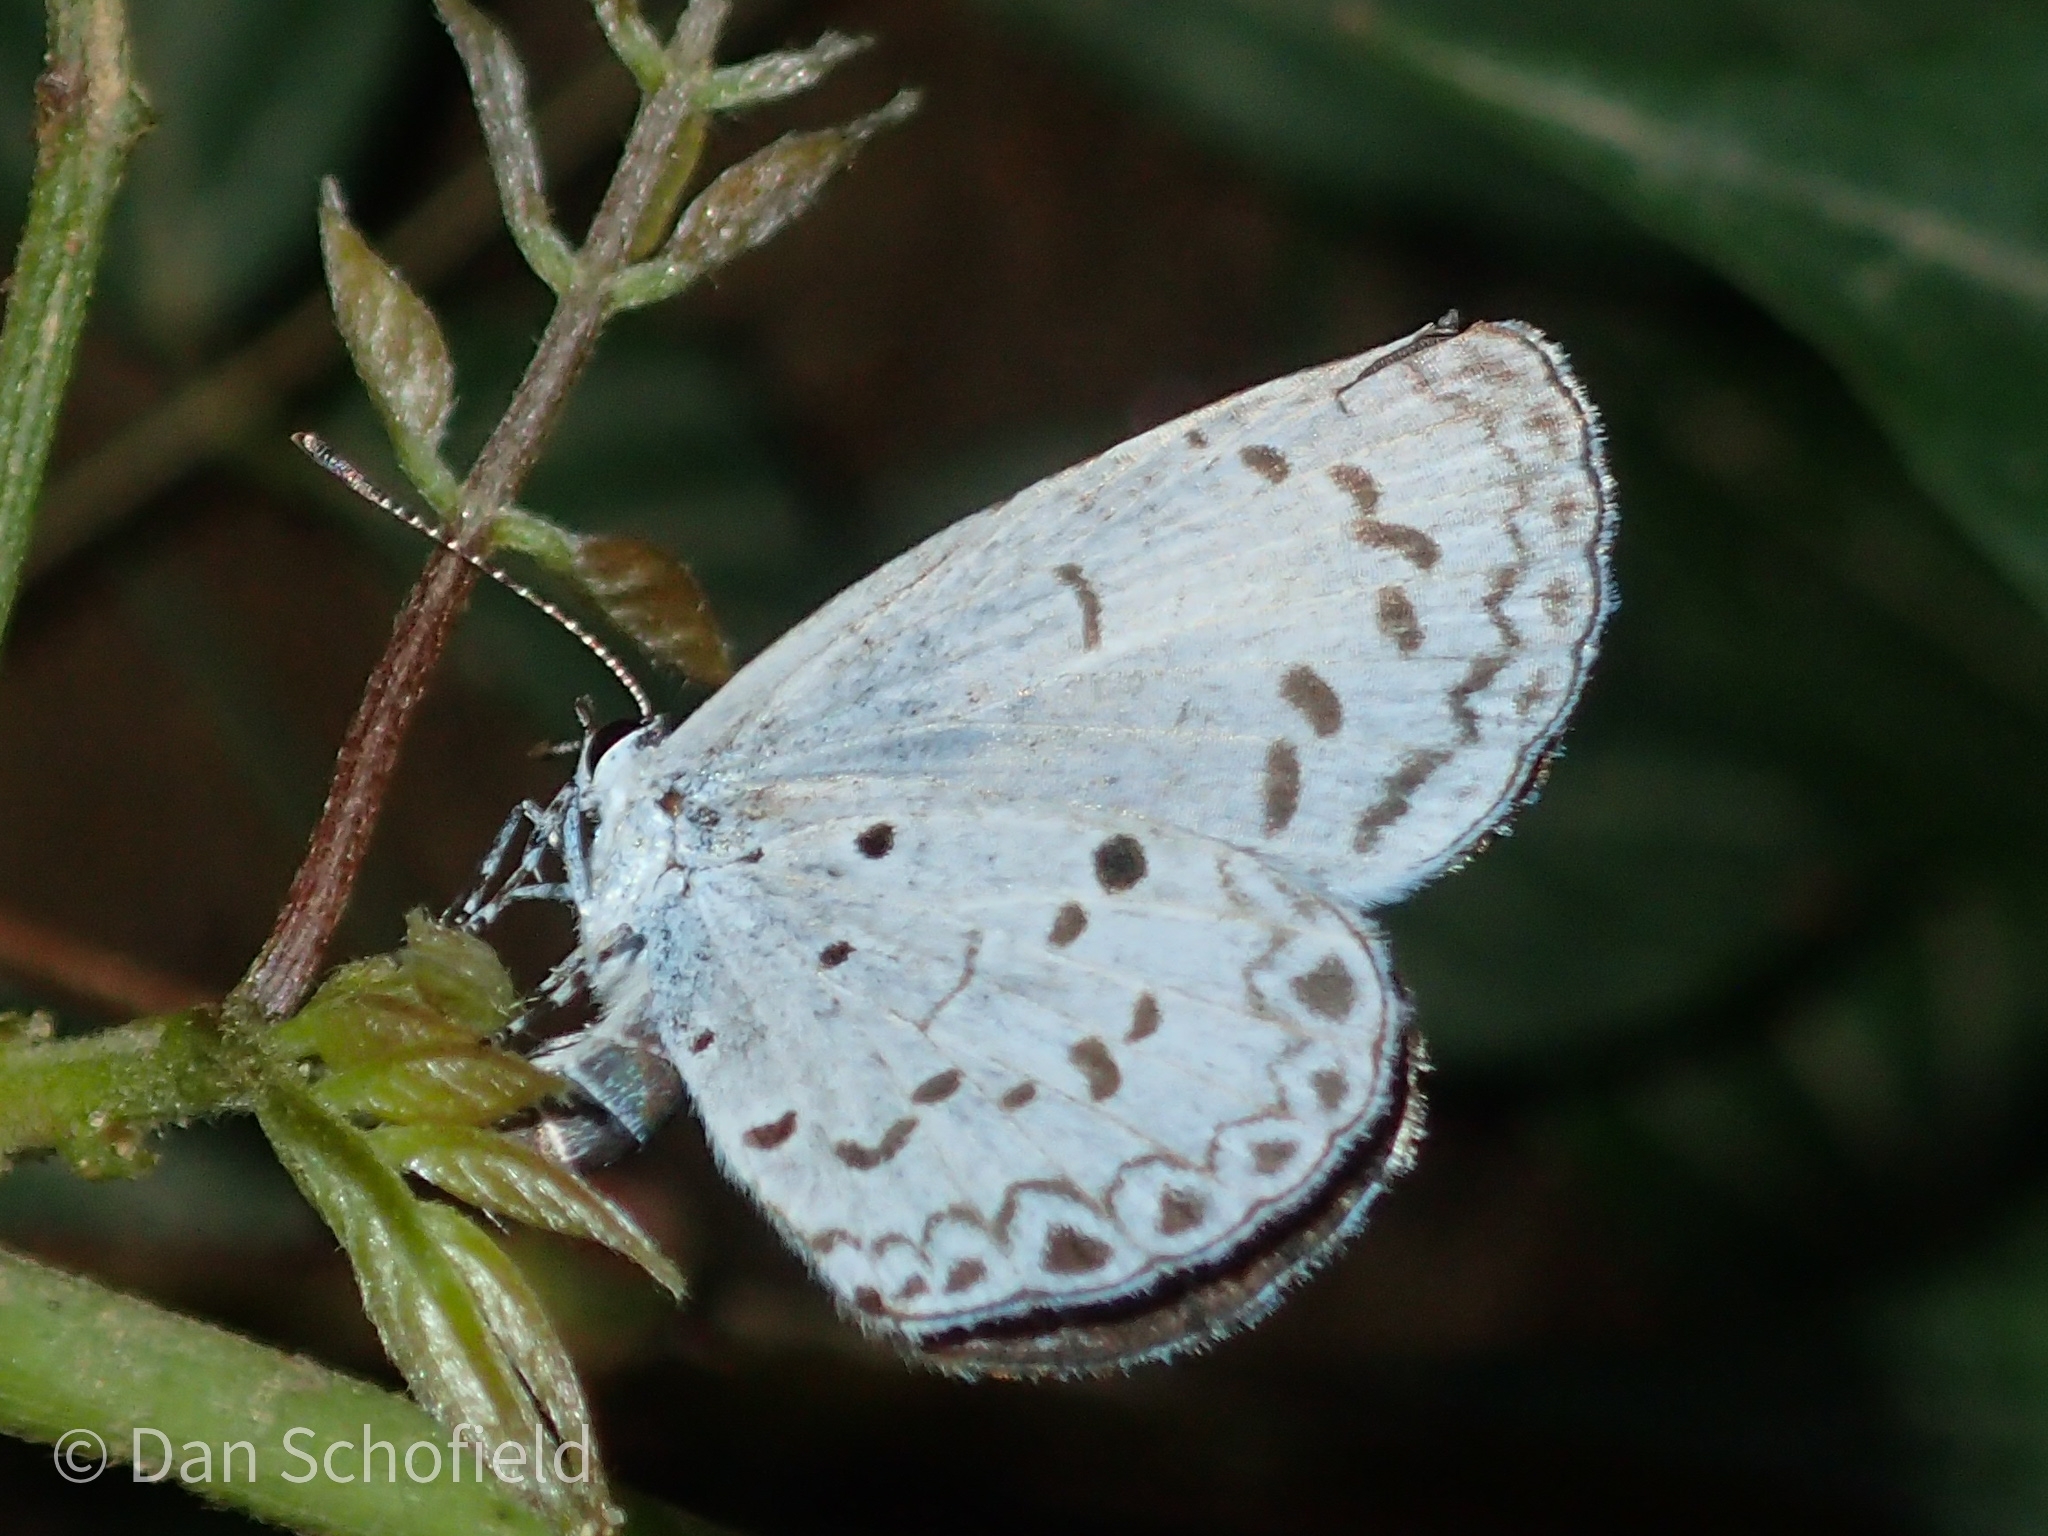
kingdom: Animalia
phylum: Arthropoda
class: Insecta
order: Lepidoptera
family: Lycaenidae
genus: Acytolepis
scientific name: Acytolepis puspa
